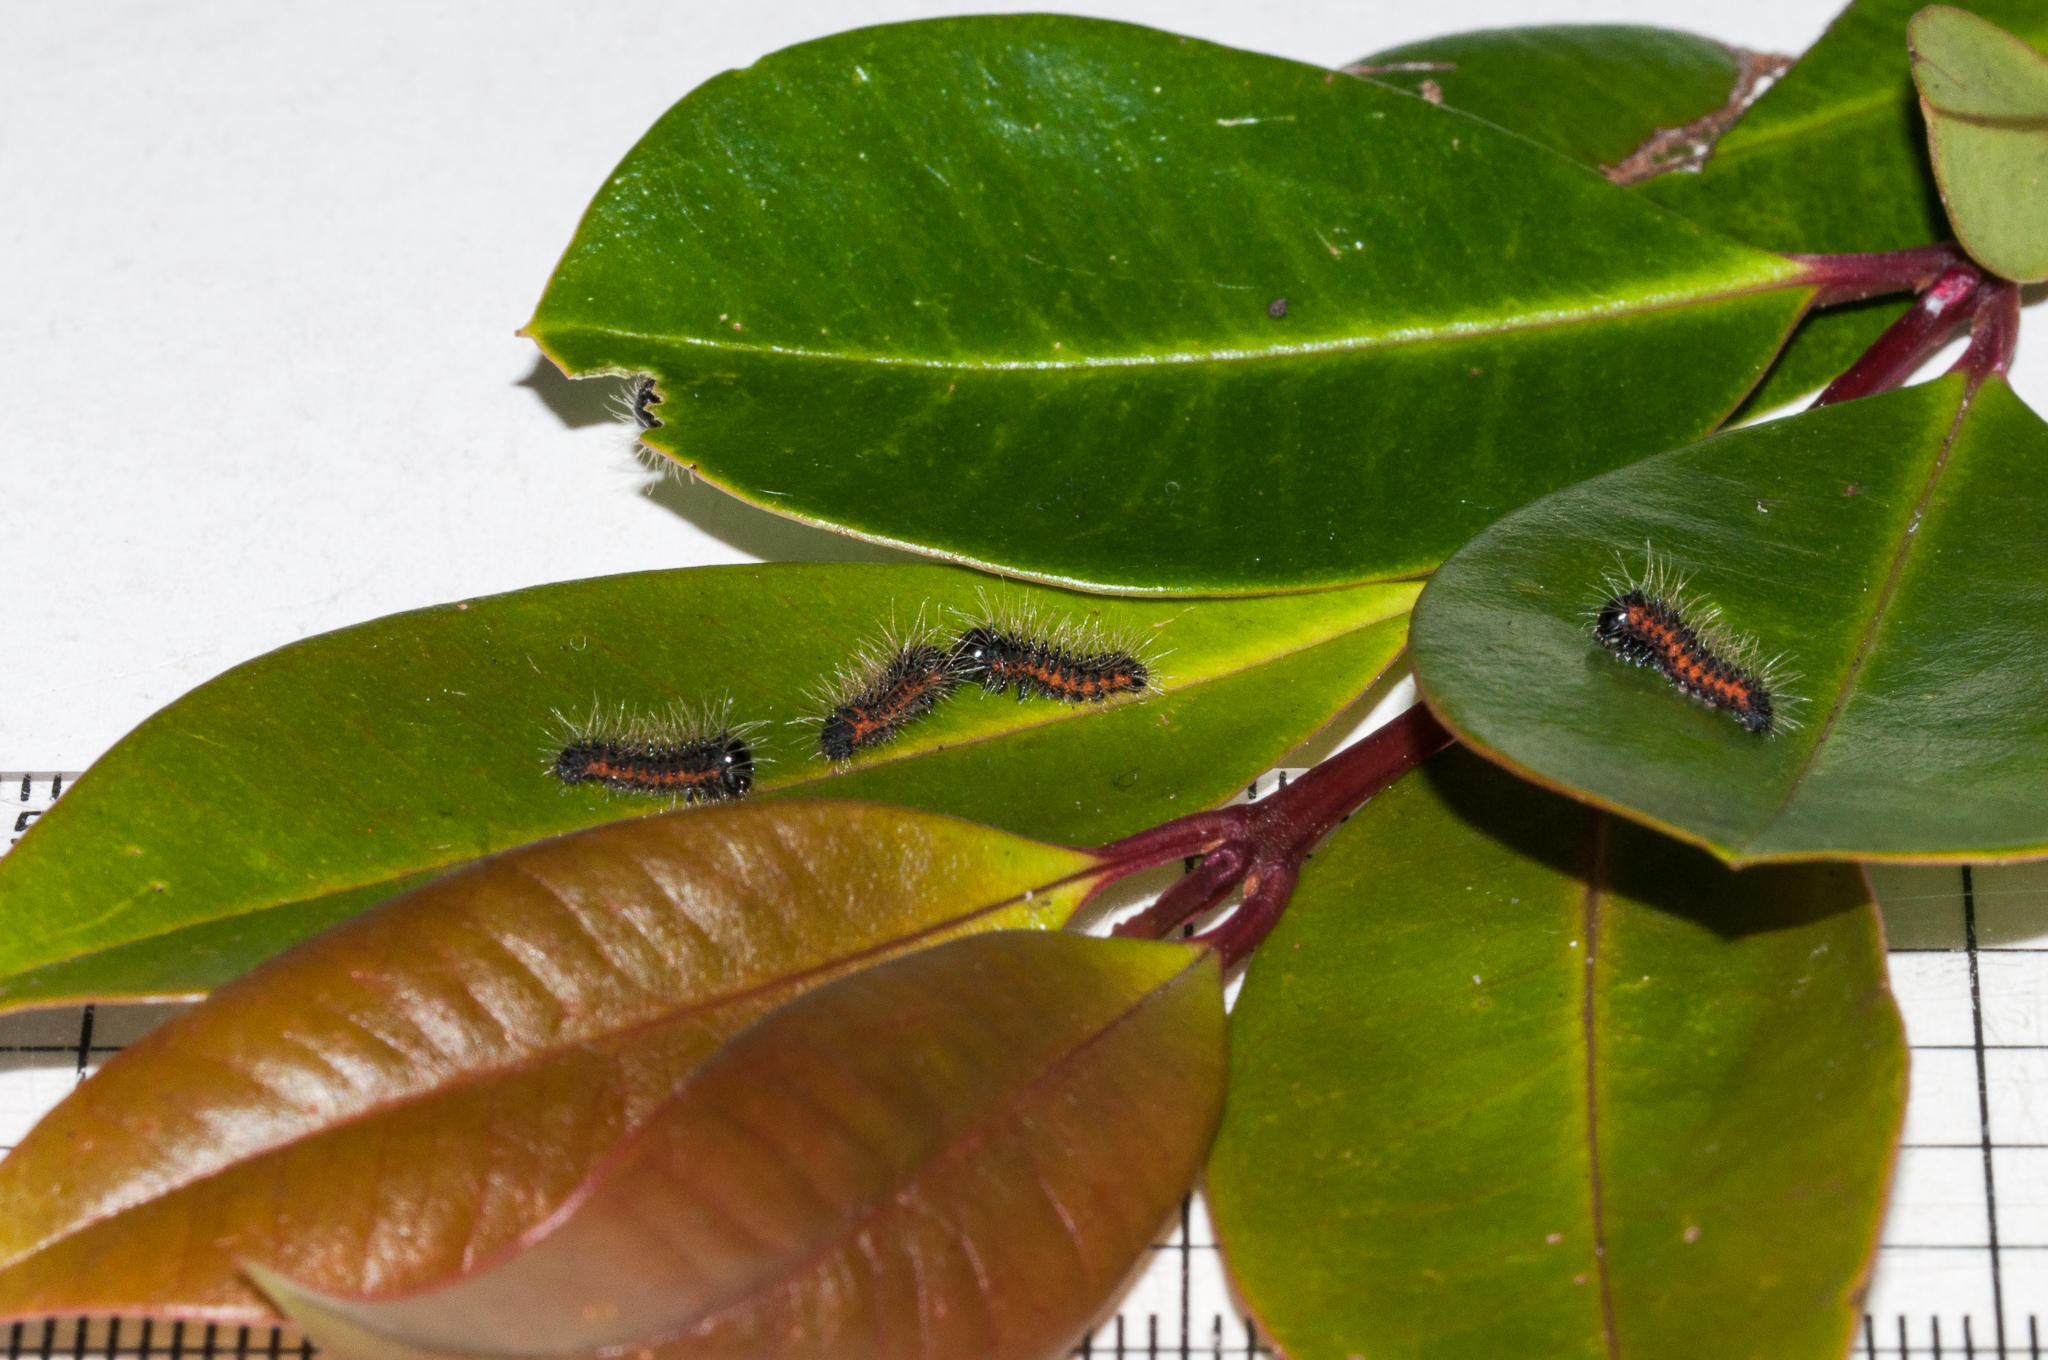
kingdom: Plantae
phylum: Tracheophyta
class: Magnoliopsida
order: Myrtales
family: Myrtaceae
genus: Syzygium
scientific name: Syzygium australe
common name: Australian brush-cherry
